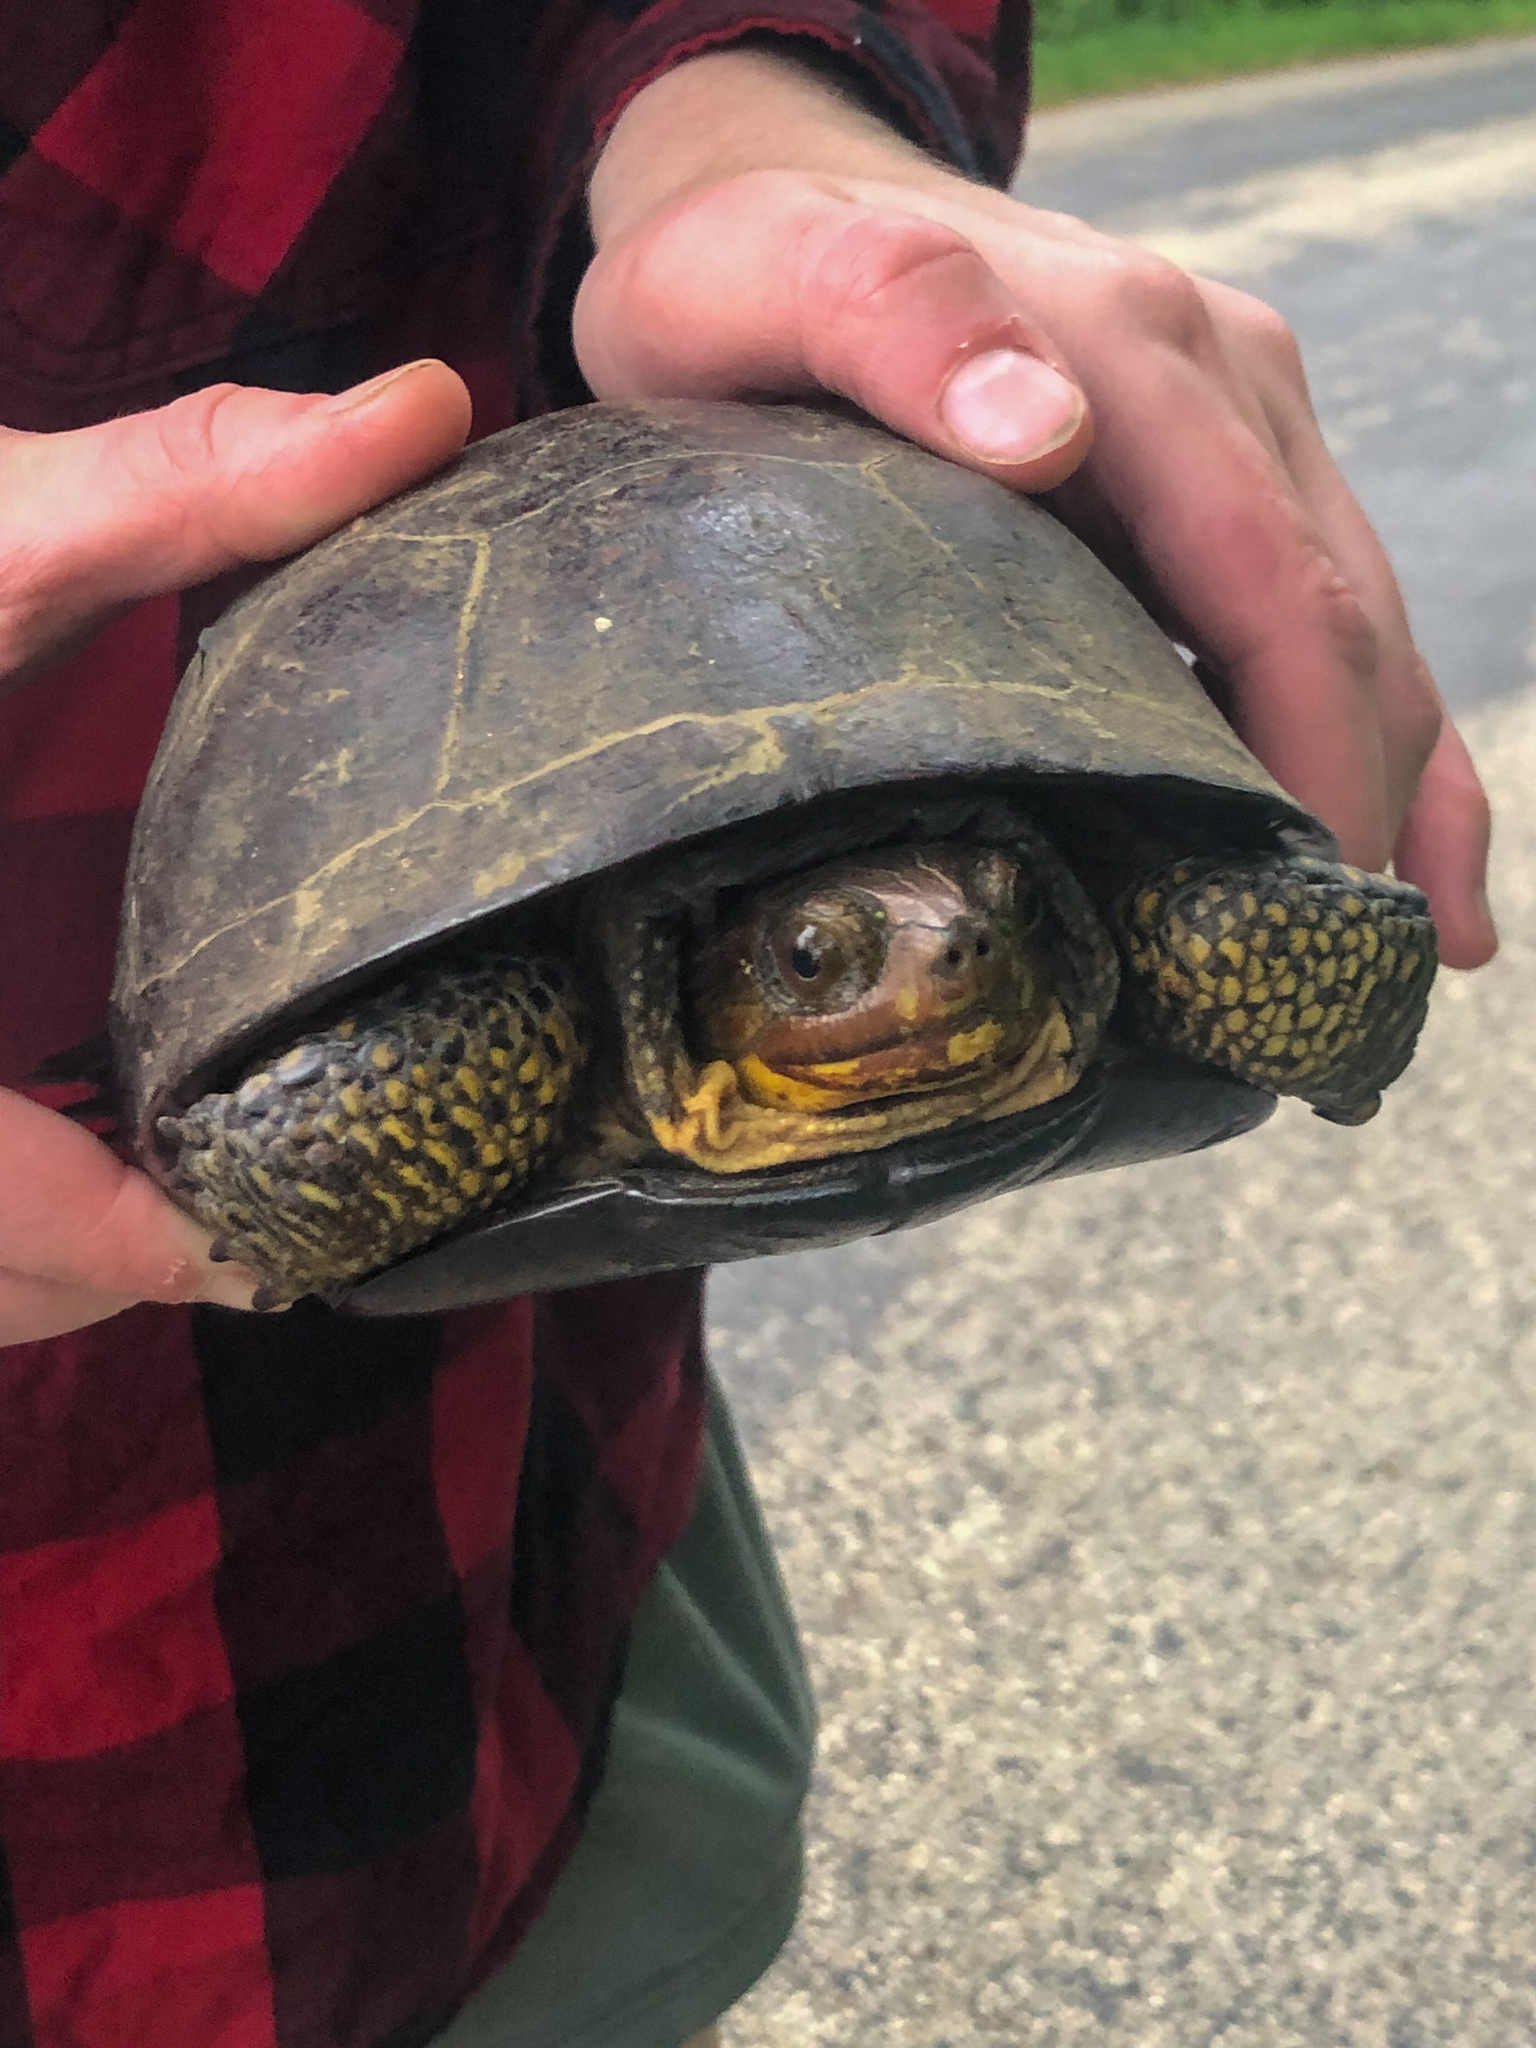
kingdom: Animalia
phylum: Chordata
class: Testudines
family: Emydidae
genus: Emys
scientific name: Emys blandingii
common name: Blanding's turtle
